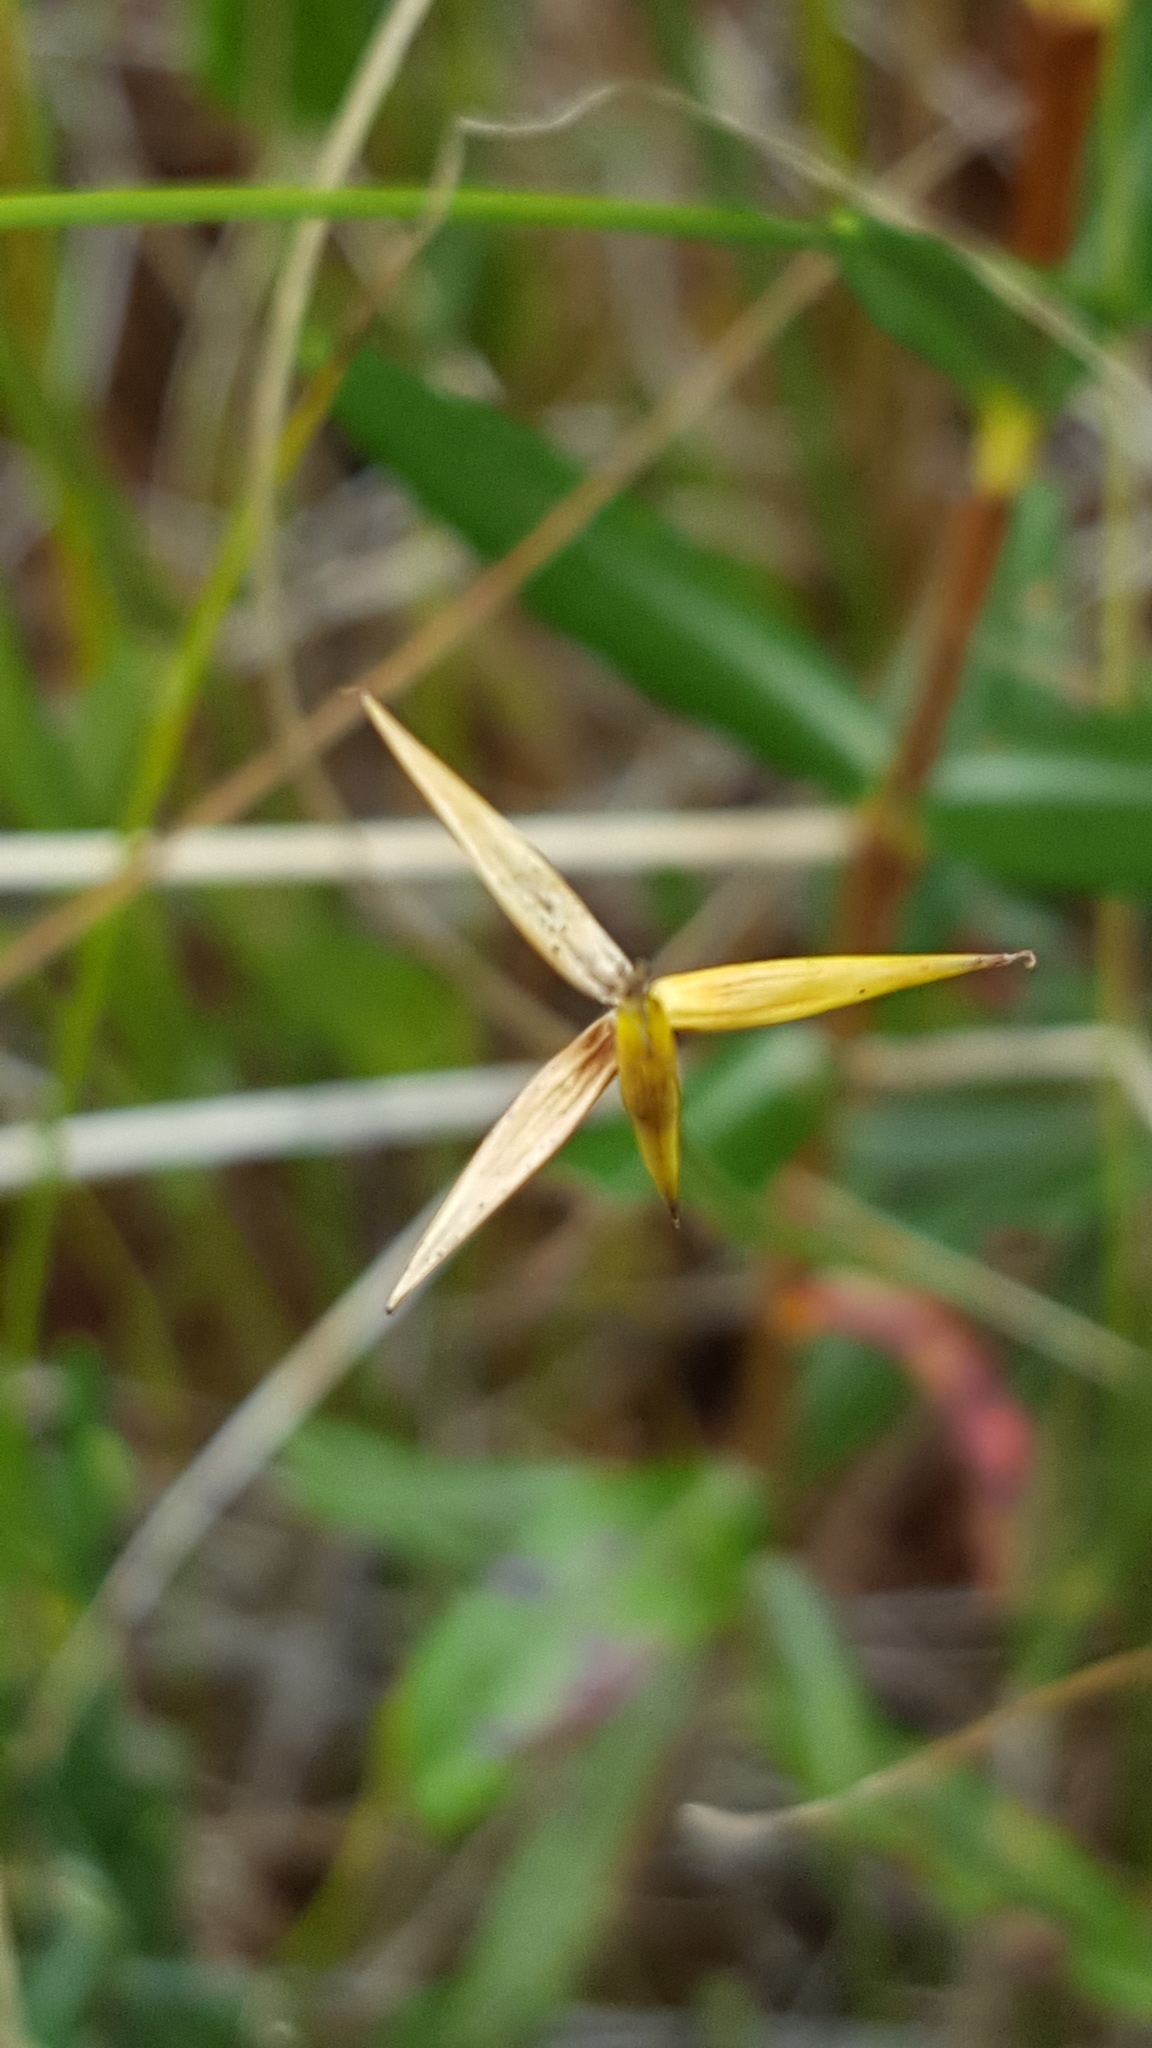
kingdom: Plantae
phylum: Tracheophyta
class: Liliopsida
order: Poales
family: Cyperaceae
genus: Carex
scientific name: Carex pauciflora
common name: Few-flowered sedge
